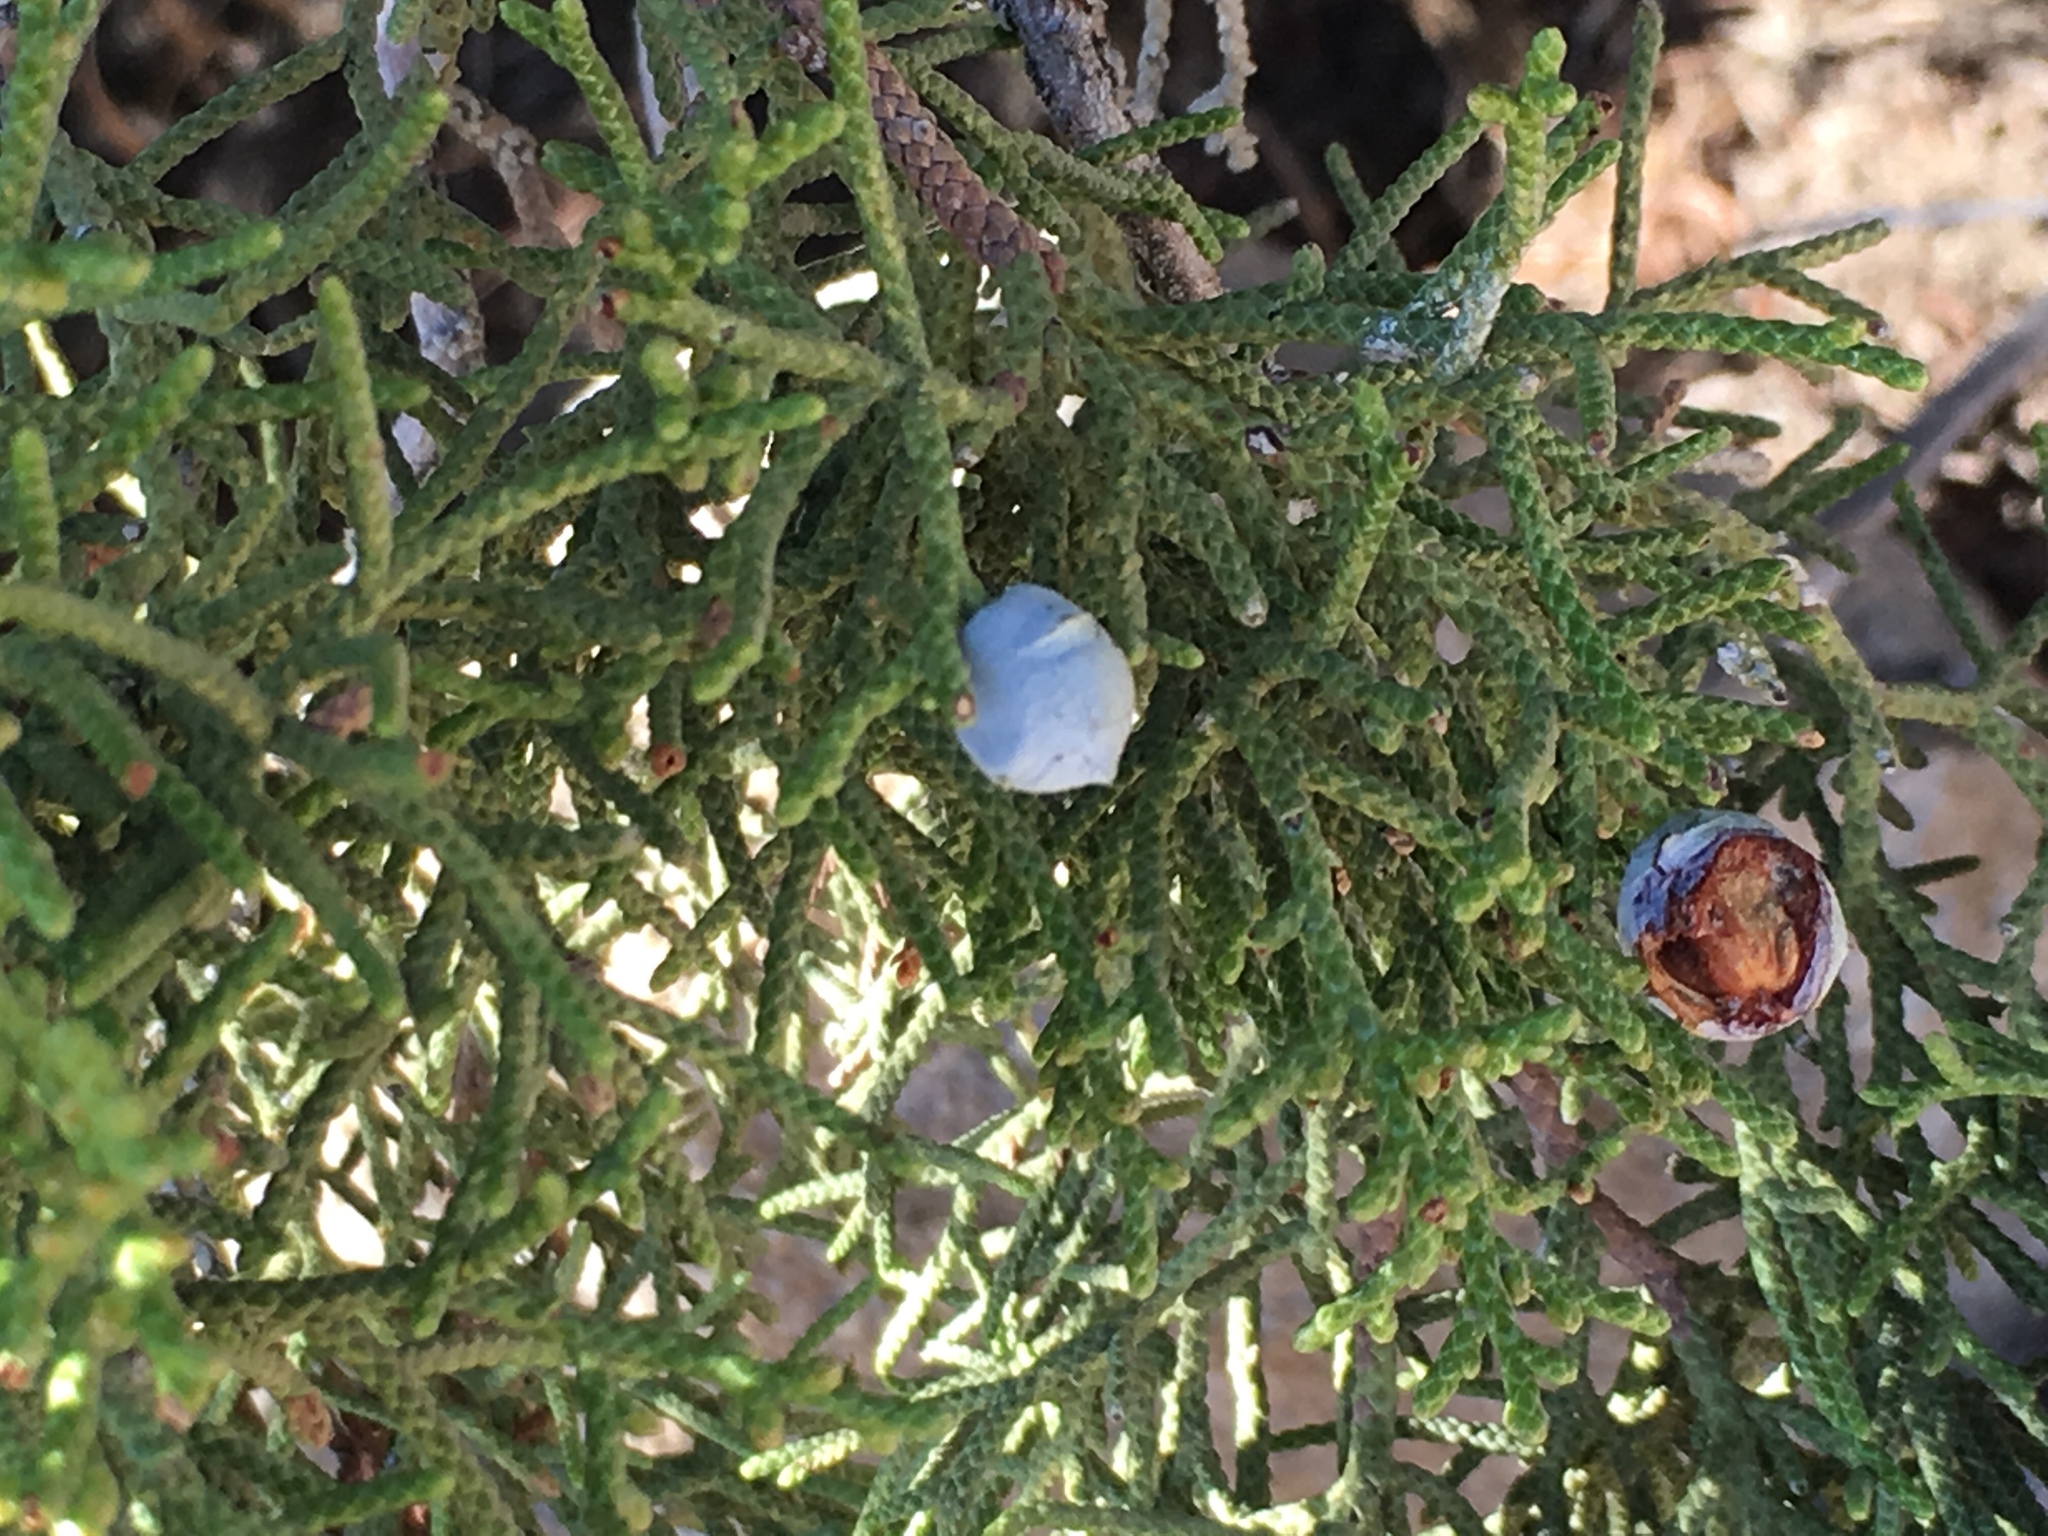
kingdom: Plantae
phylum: Tracheophyta
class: Pinopsida
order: Pinales
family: Cupressaceae
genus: Juniperus
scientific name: Juniperus californica
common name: California juniper
